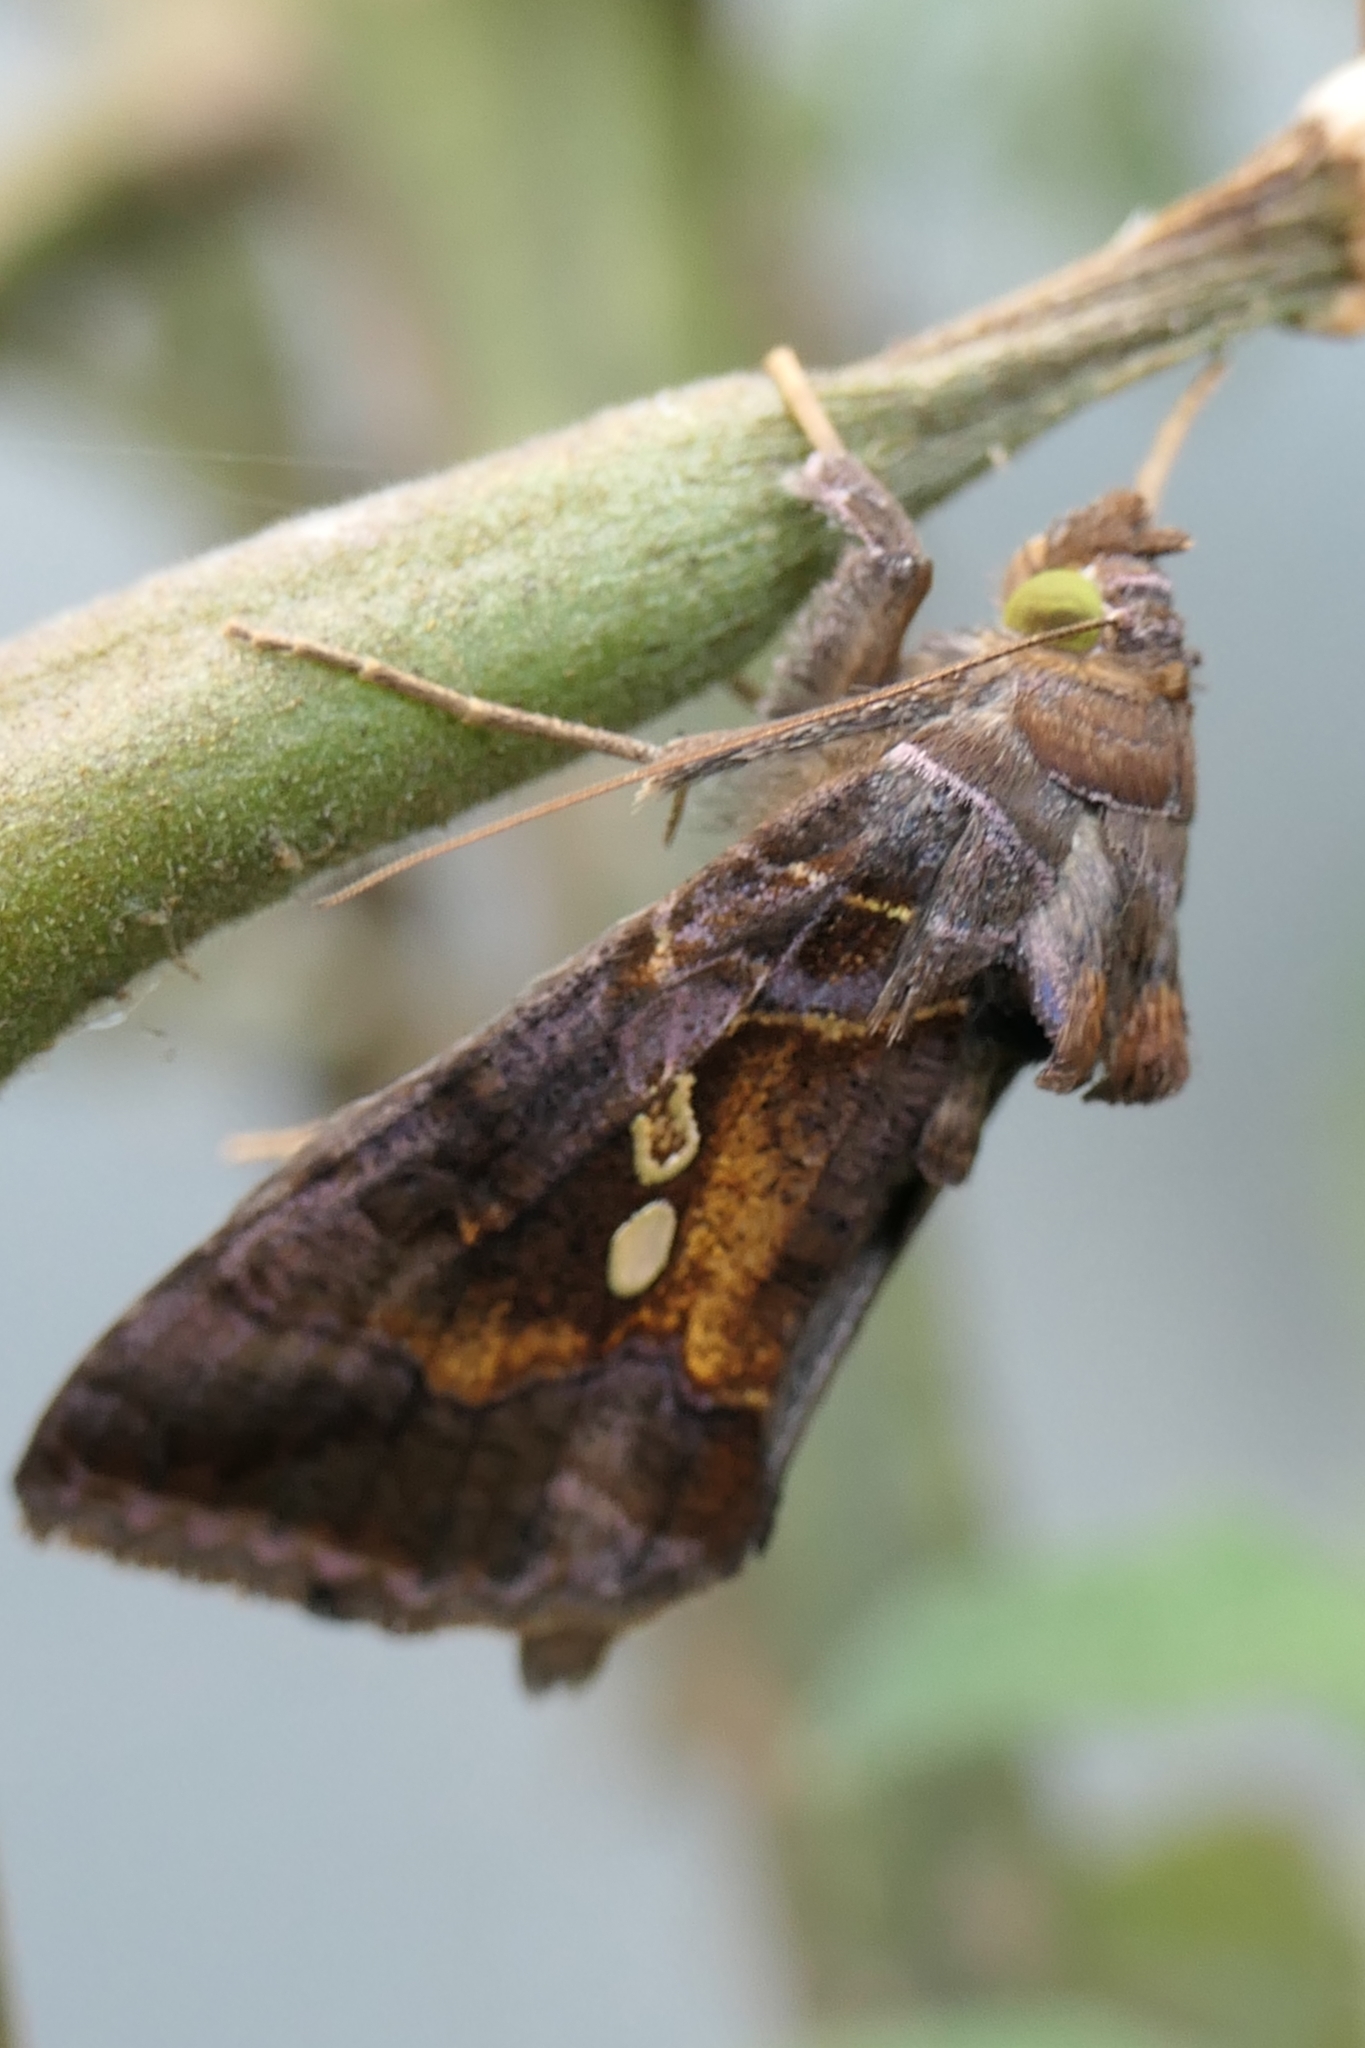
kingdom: Animalia
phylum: Arthropoda
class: Insecta
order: Lepidoptera
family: Noctuidae
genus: Chrysodeixis
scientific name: Chrysodeixis eriosoma
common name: Green garden looper
